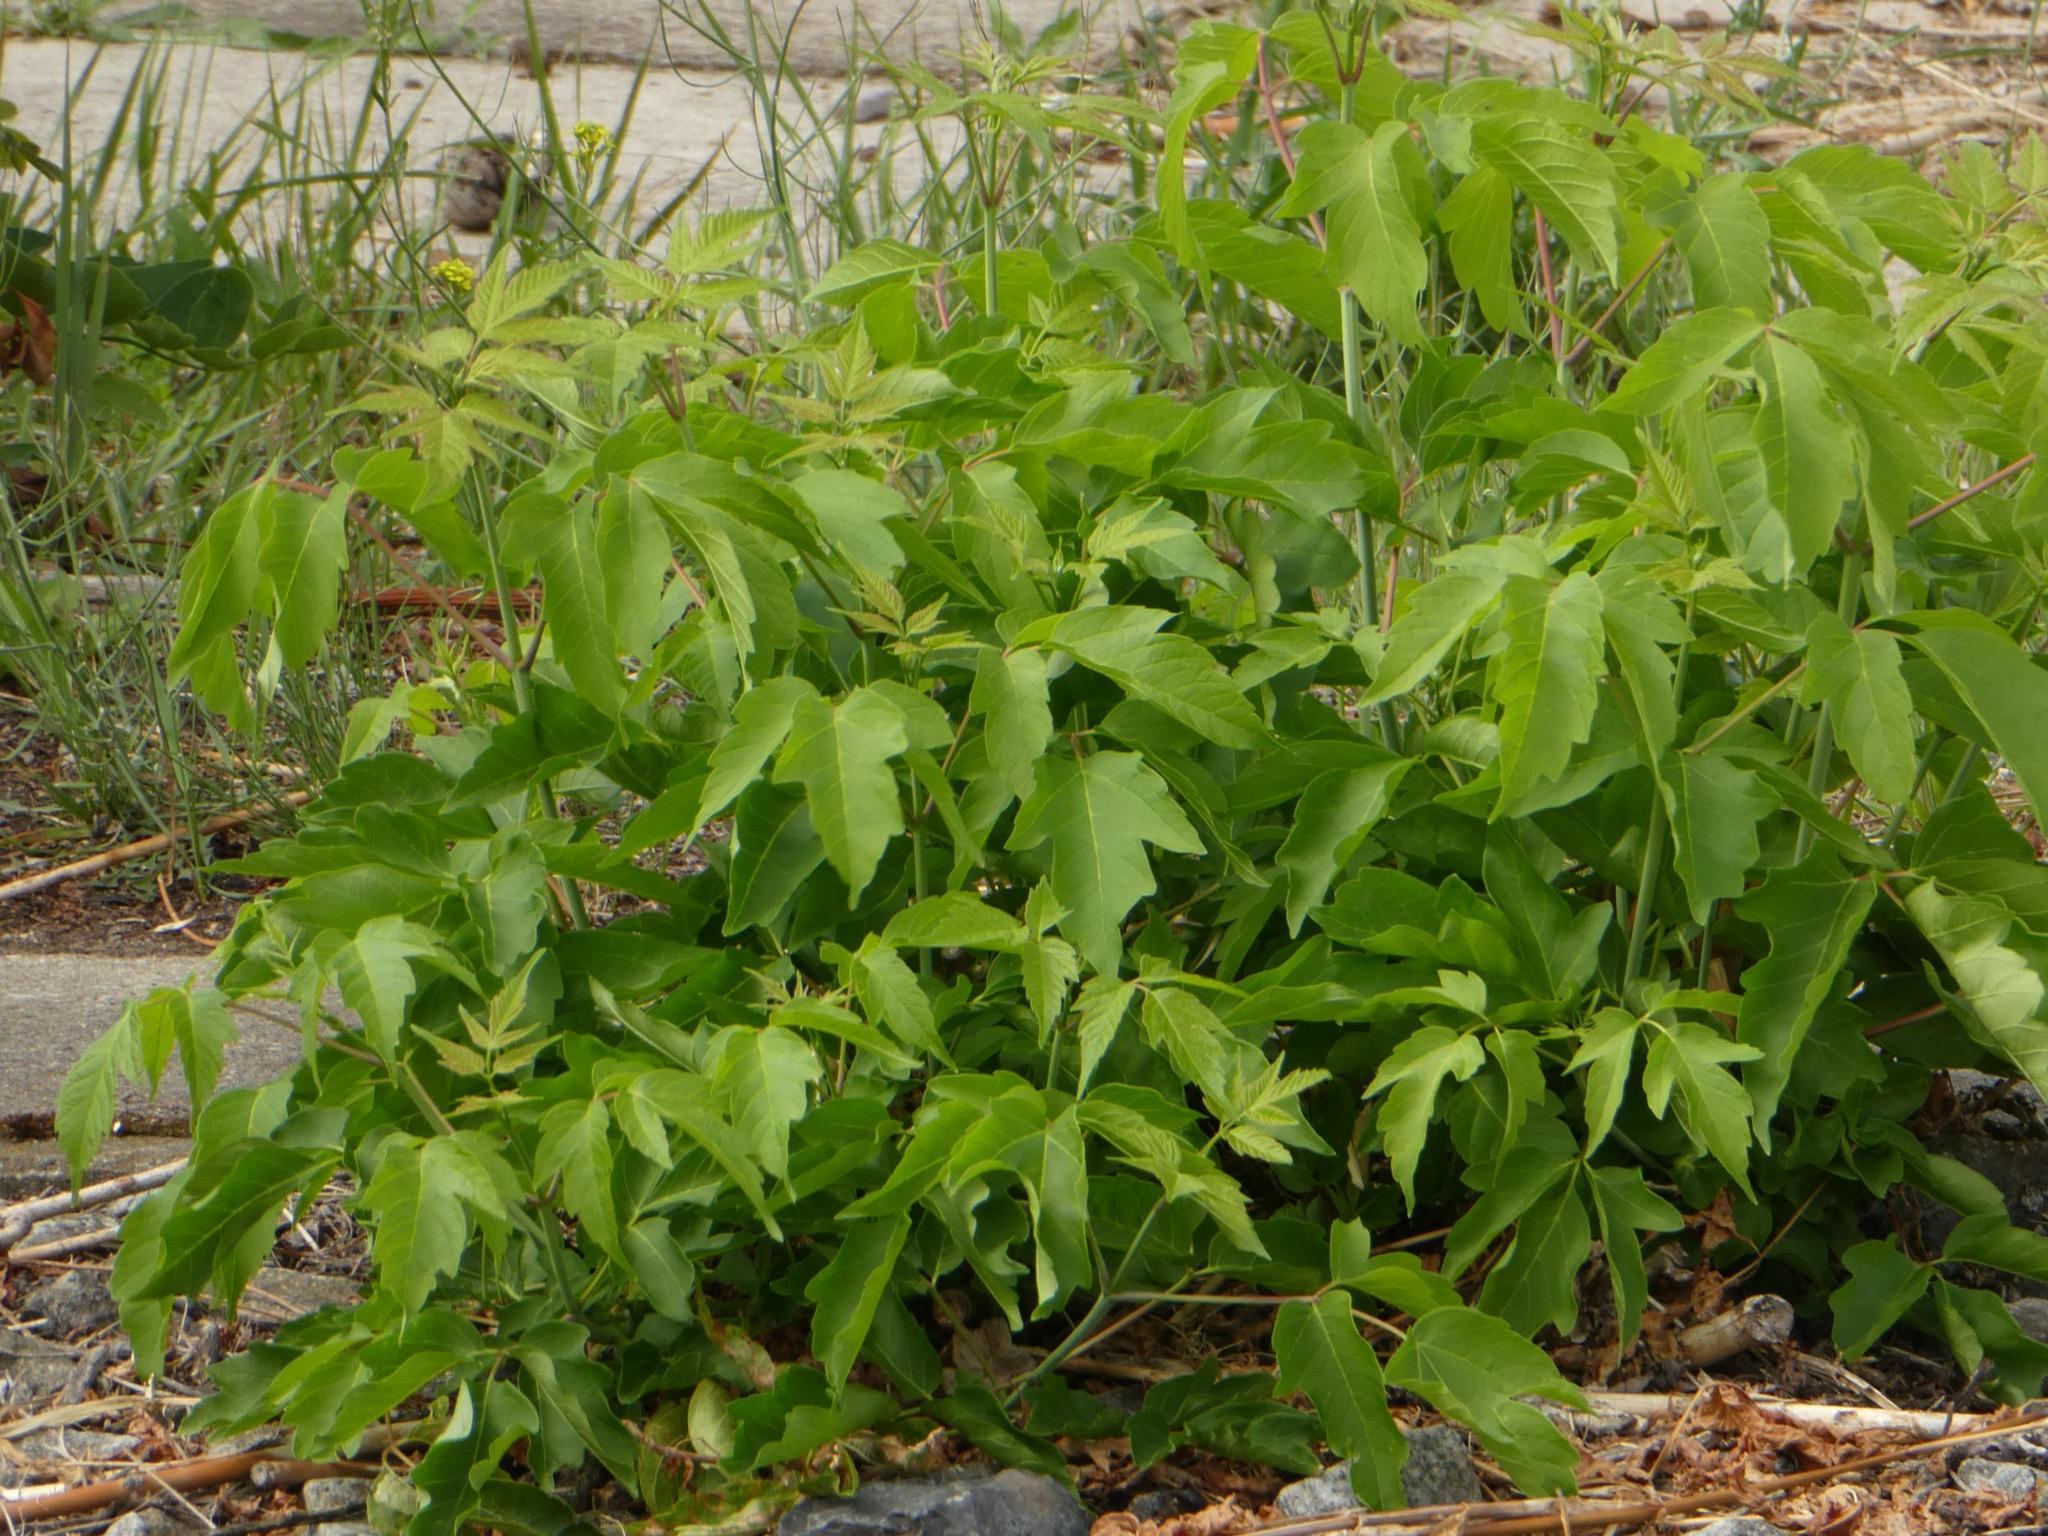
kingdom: Plantae
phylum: Tracheophyta
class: Magnoliopsida
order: Sapindales
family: Sapindaceae
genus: Acer
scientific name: Acer negundo
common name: Ashleaf maple
